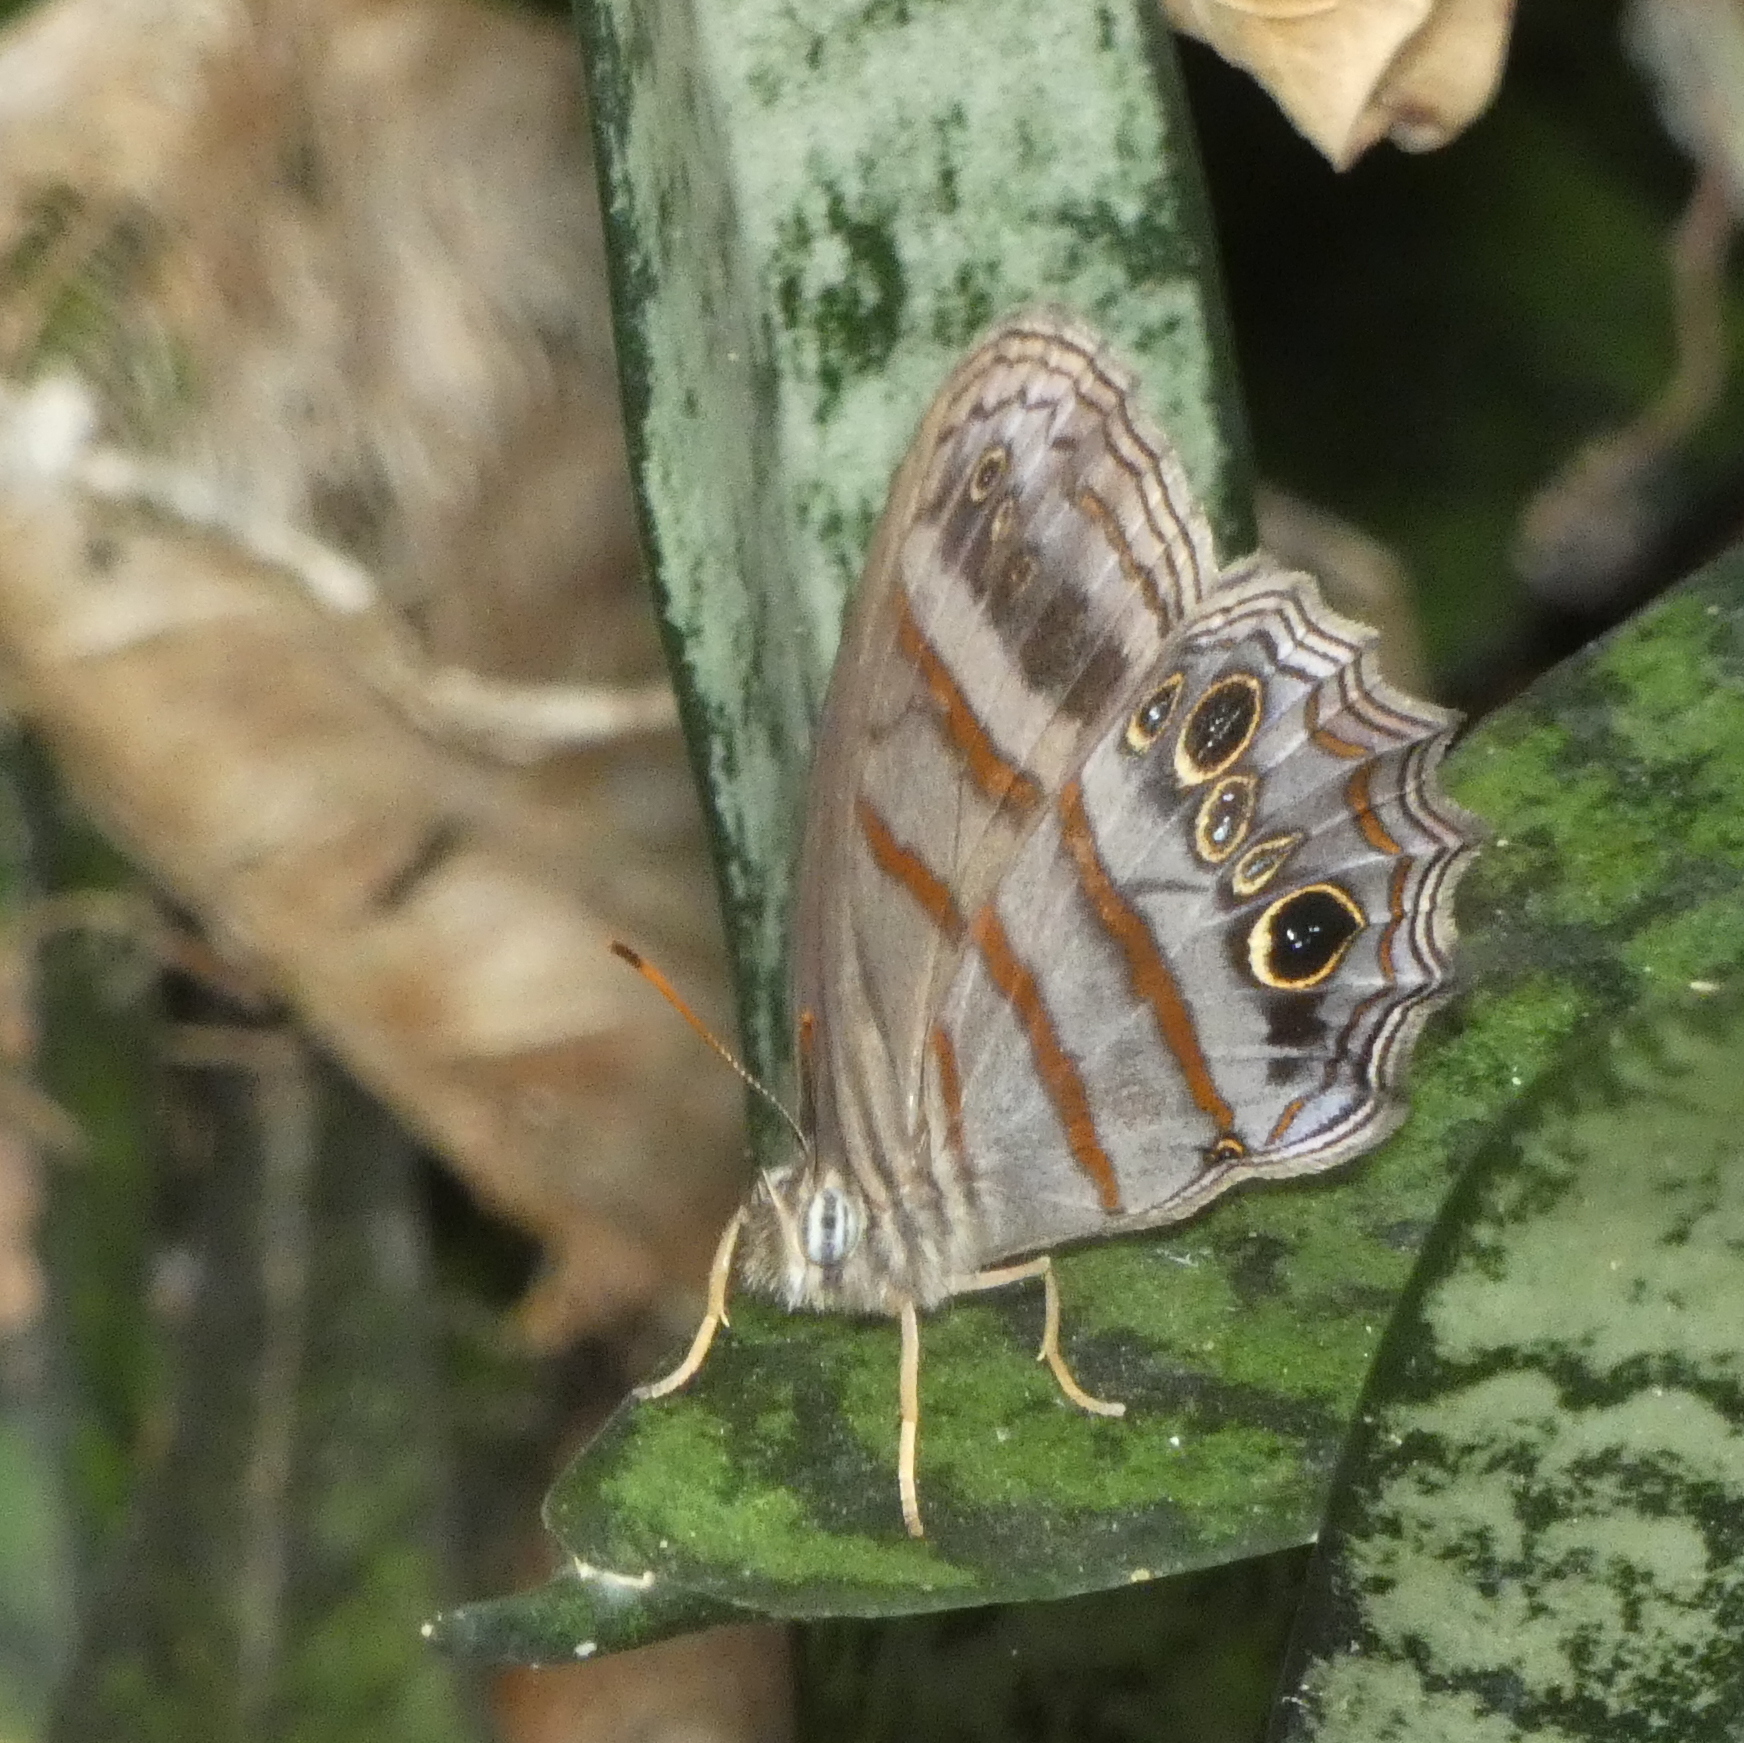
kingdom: Animalia
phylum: Arthropoda
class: Insecta
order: Lepidoptera
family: Nymphalidae
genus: Magneuptychia
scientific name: Magneuptychia libye
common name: Blue-gray satyr
